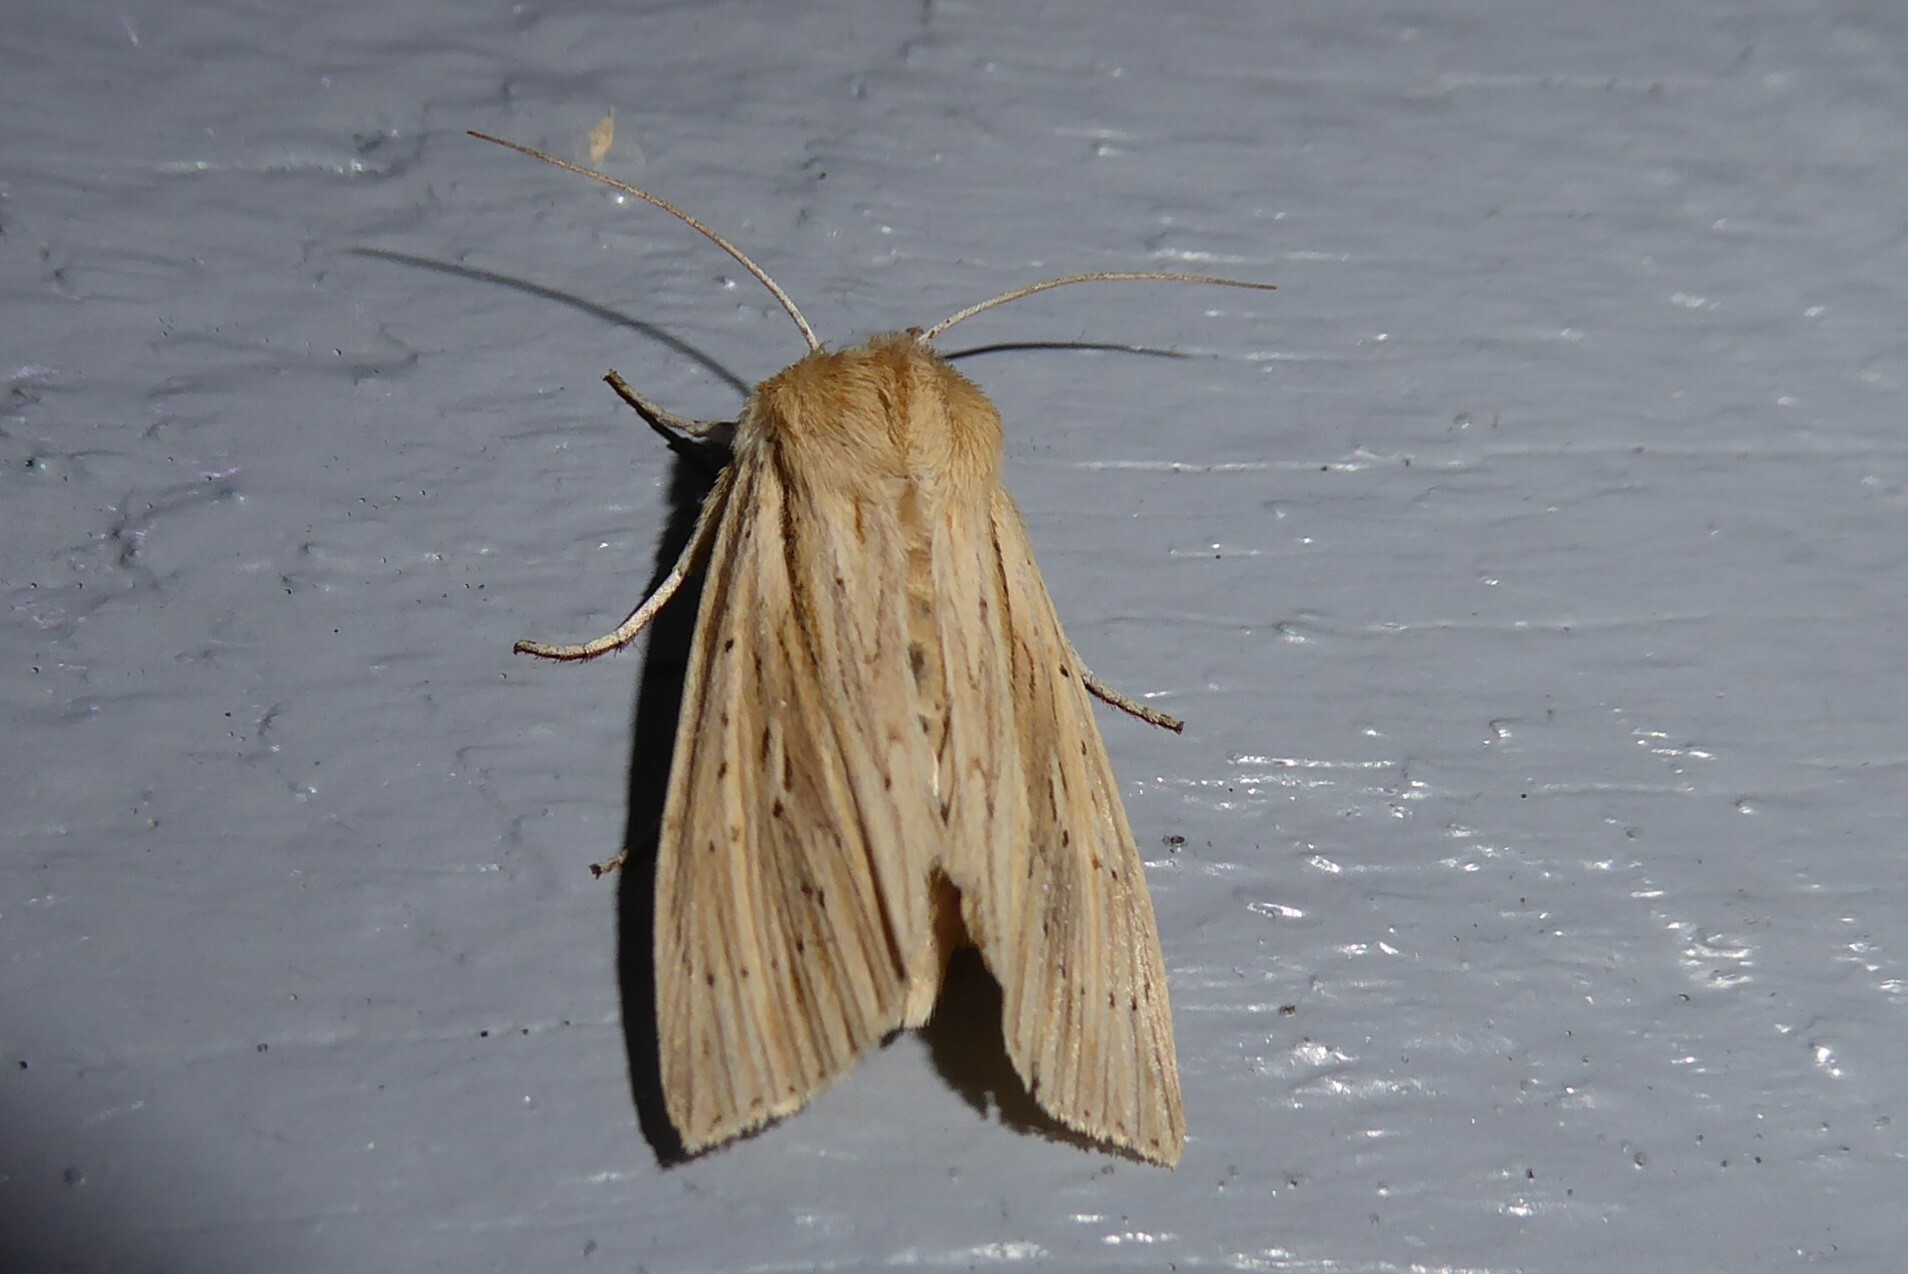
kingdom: Animalia
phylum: Arthropoda
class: Insecta
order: Lepidoptera
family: Noctuidae
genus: Ichneutica
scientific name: Ichneutica semivittata
